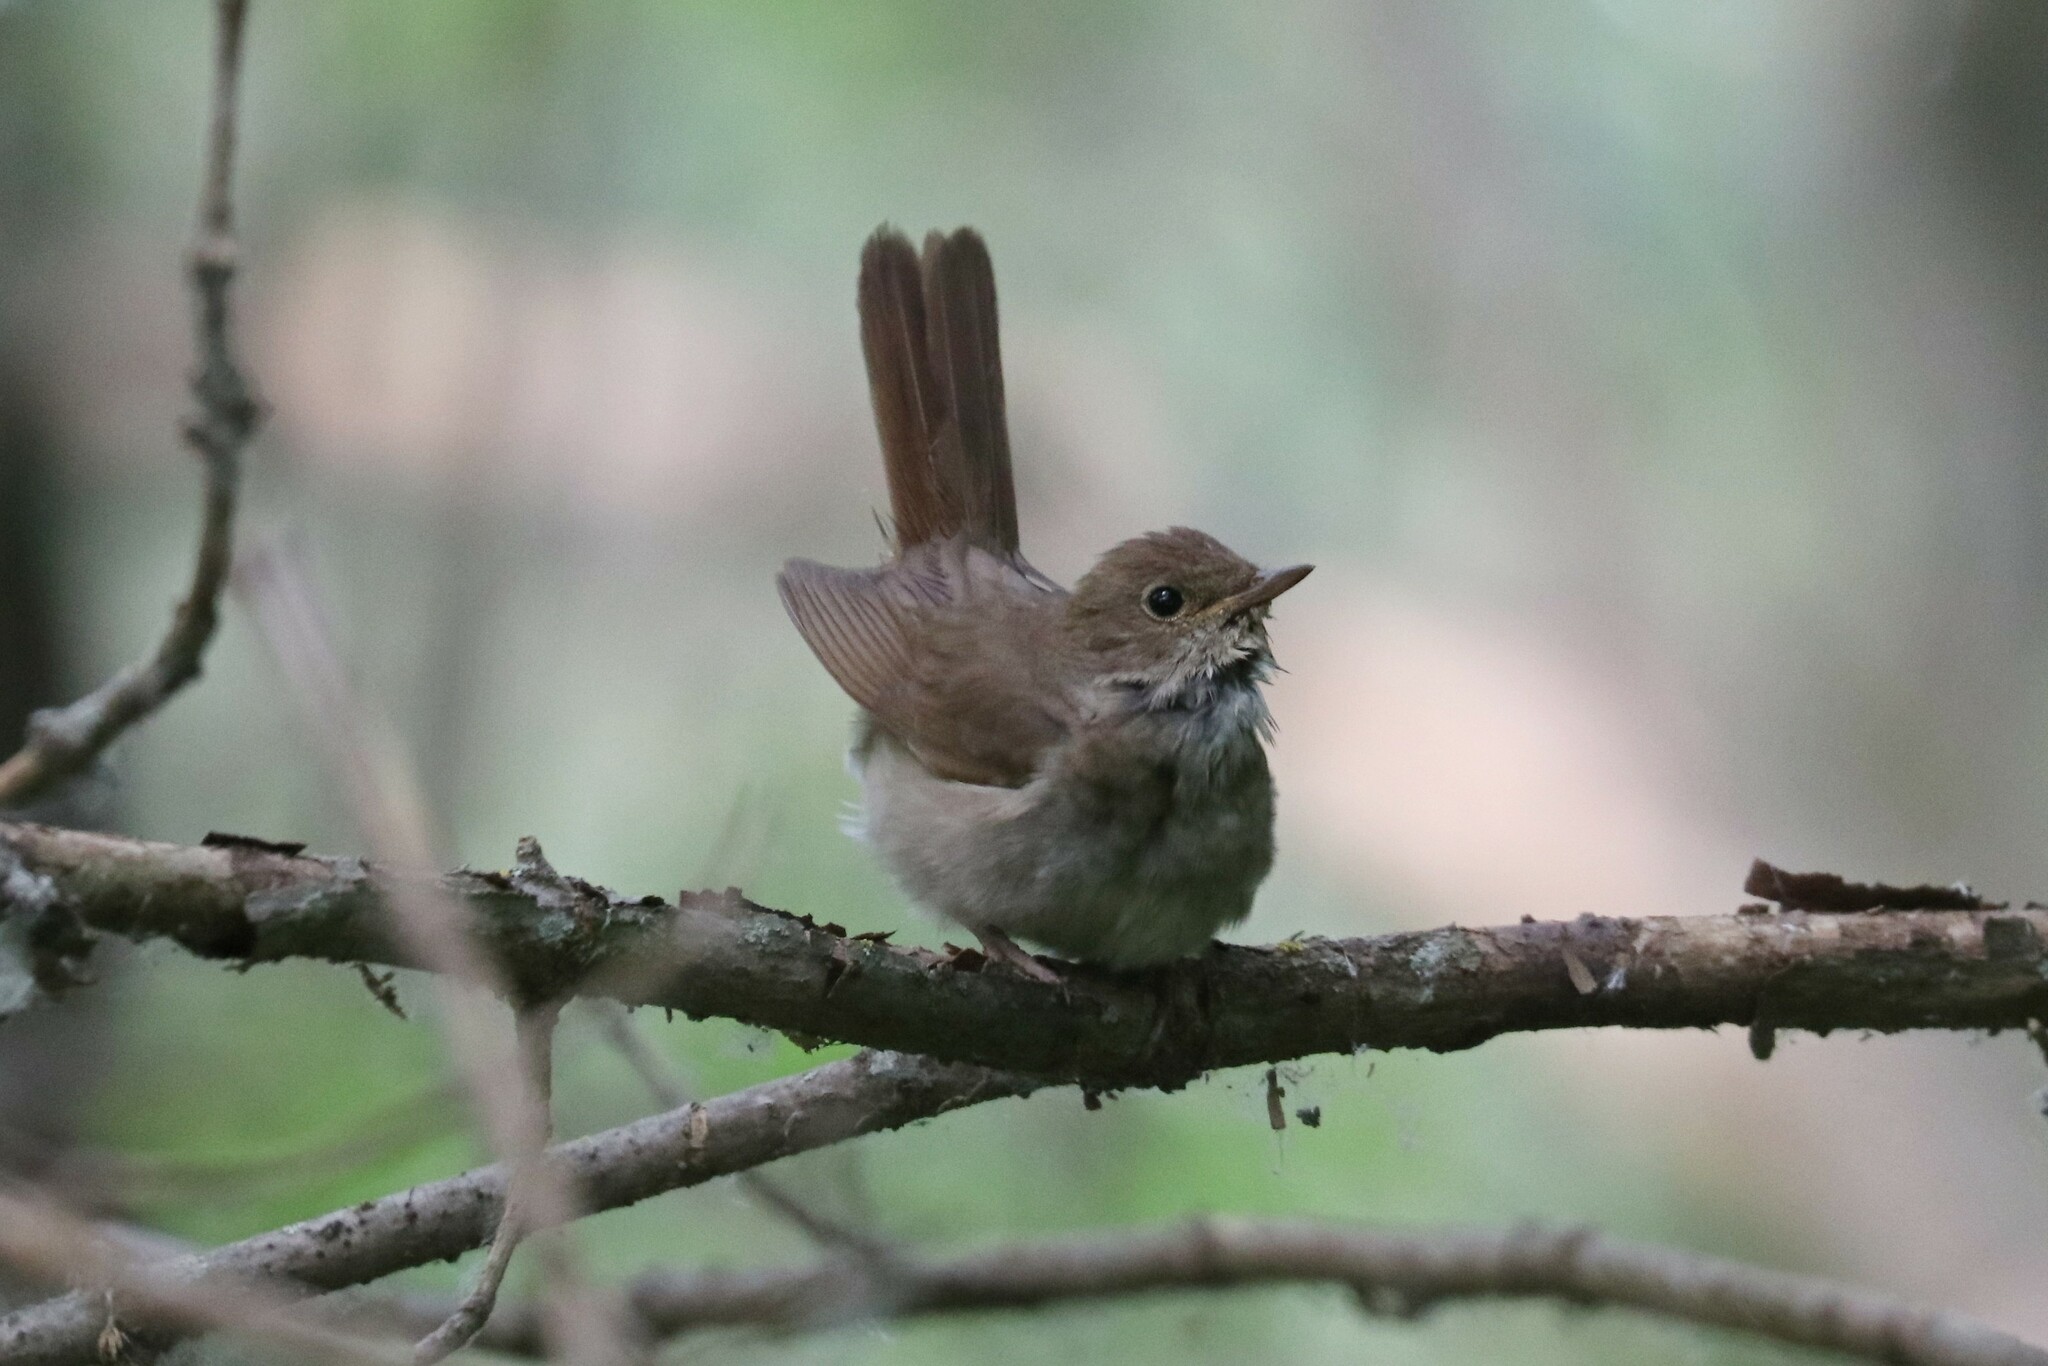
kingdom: Animalia
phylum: Chordata
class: Aves
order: Passeriformes
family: Muscicapidae
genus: Luscinia
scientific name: Luscinia luscinia
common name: Thrush nightingale
